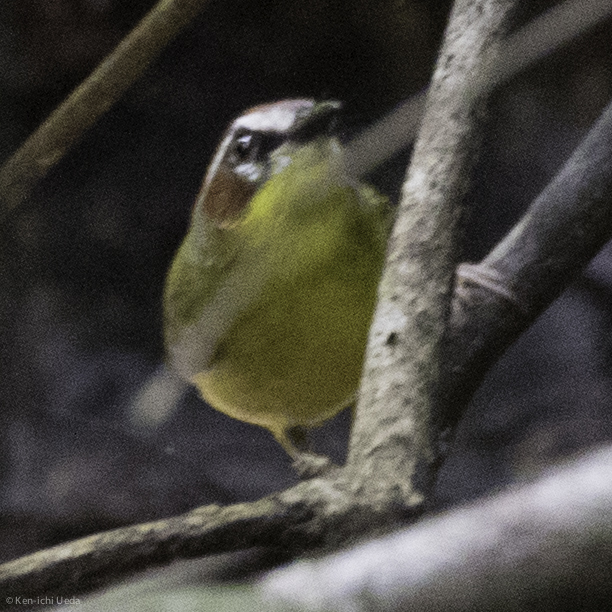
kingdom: Animalia
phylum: Chordata
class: Aves
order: Passeriformes
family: Parulidae
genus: Basileuterus
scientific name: Basileuterus rufifrons
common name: Rufous-capped warbler
